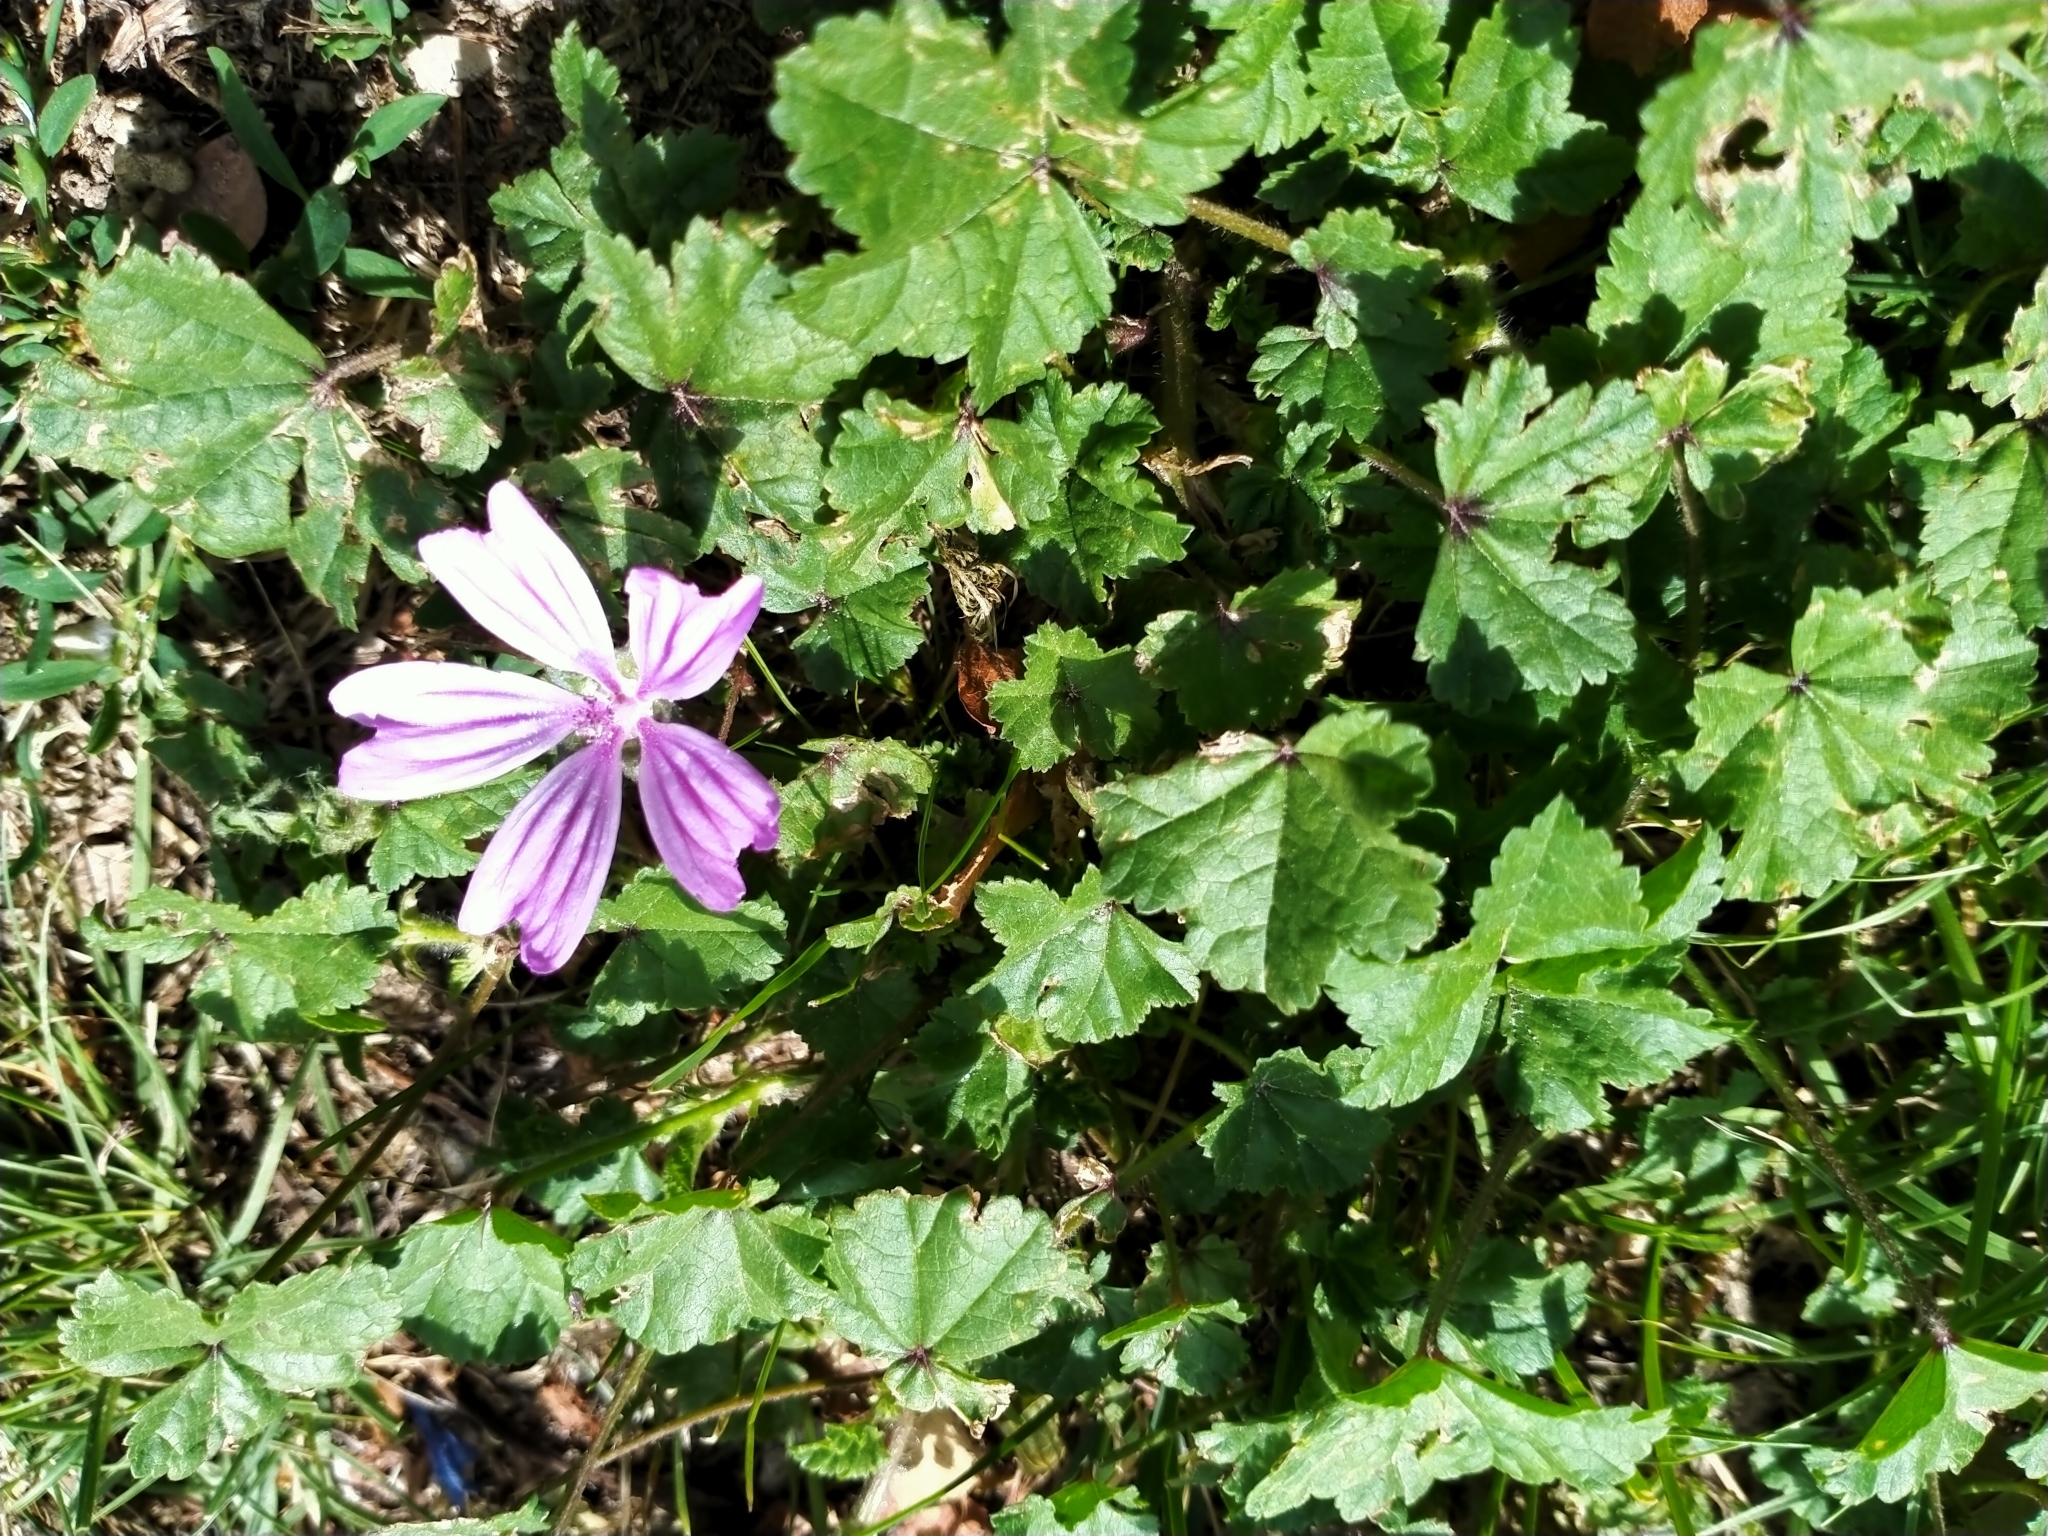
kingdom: Plantae
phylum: Tracheophyta
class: Magnoliopsida
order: Malvales
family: Malvaceae
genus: Malva
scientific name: Malva sylvestris
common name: Common mallow
